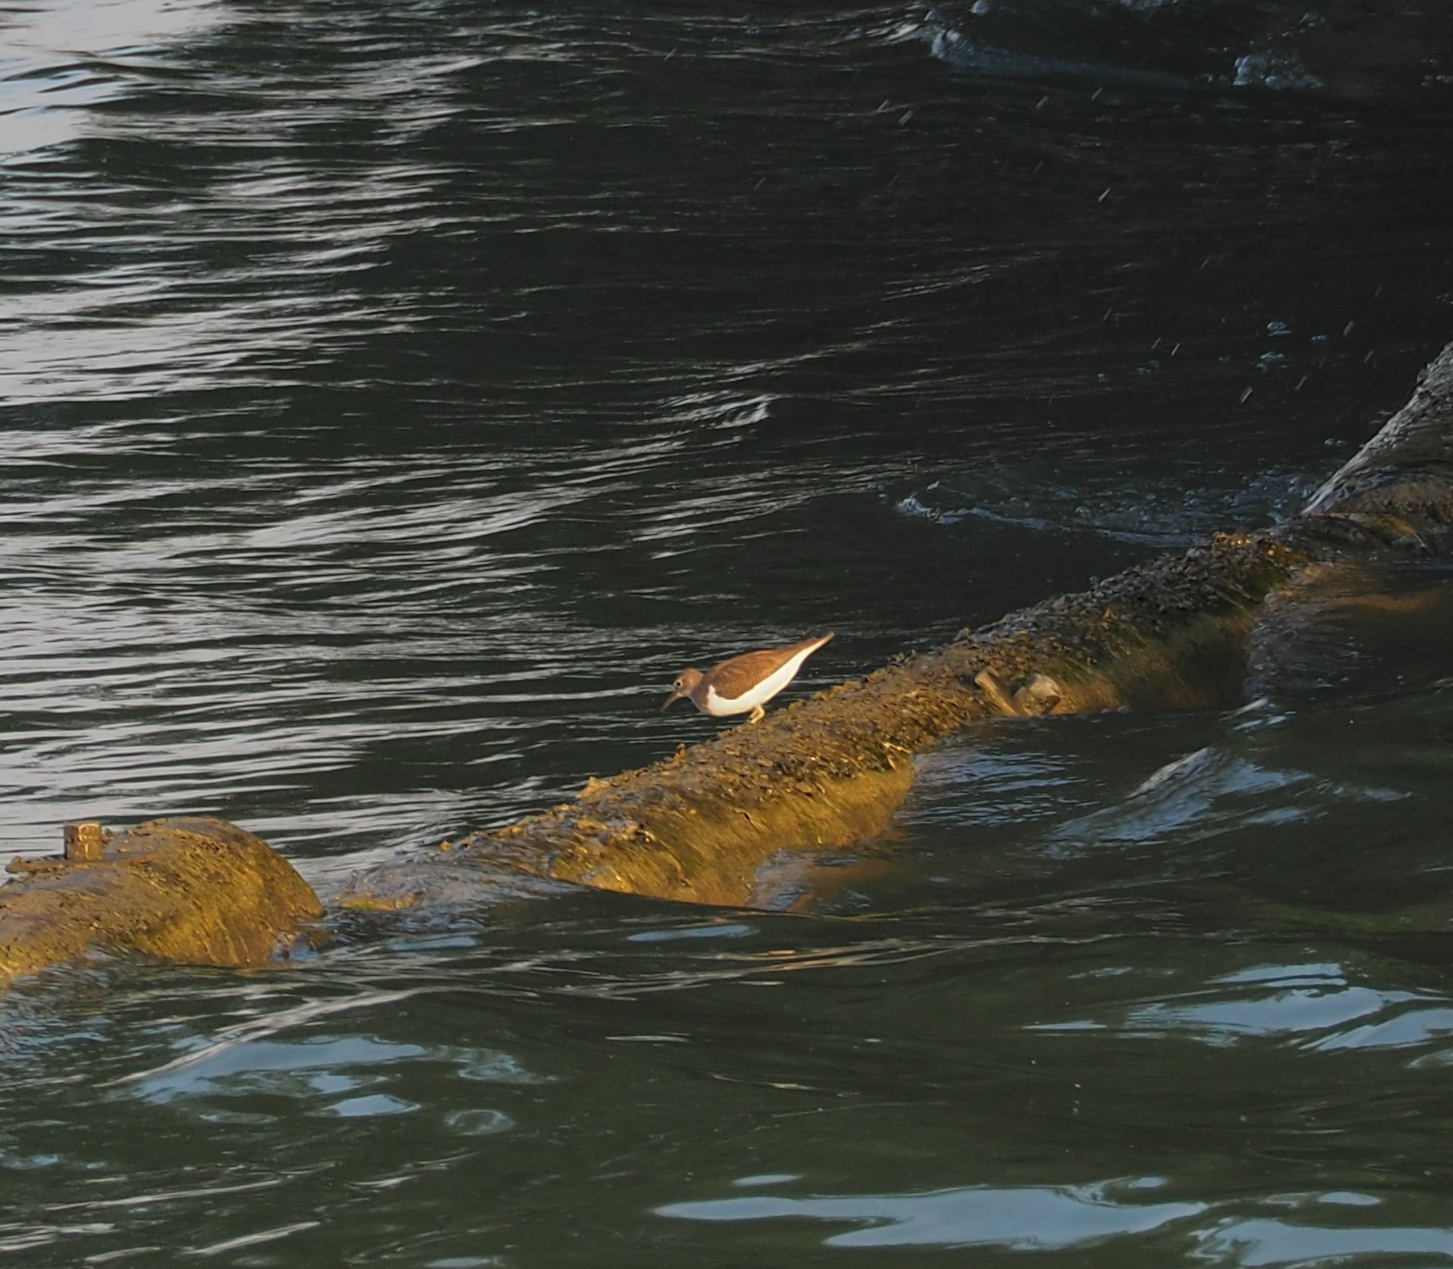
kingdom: Animalia
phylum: Chordata
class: Aves
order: Charadriiformes
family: Scolopacidae
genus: Actitis
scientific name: Actitis hypoleucos
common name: Common sandpiper
